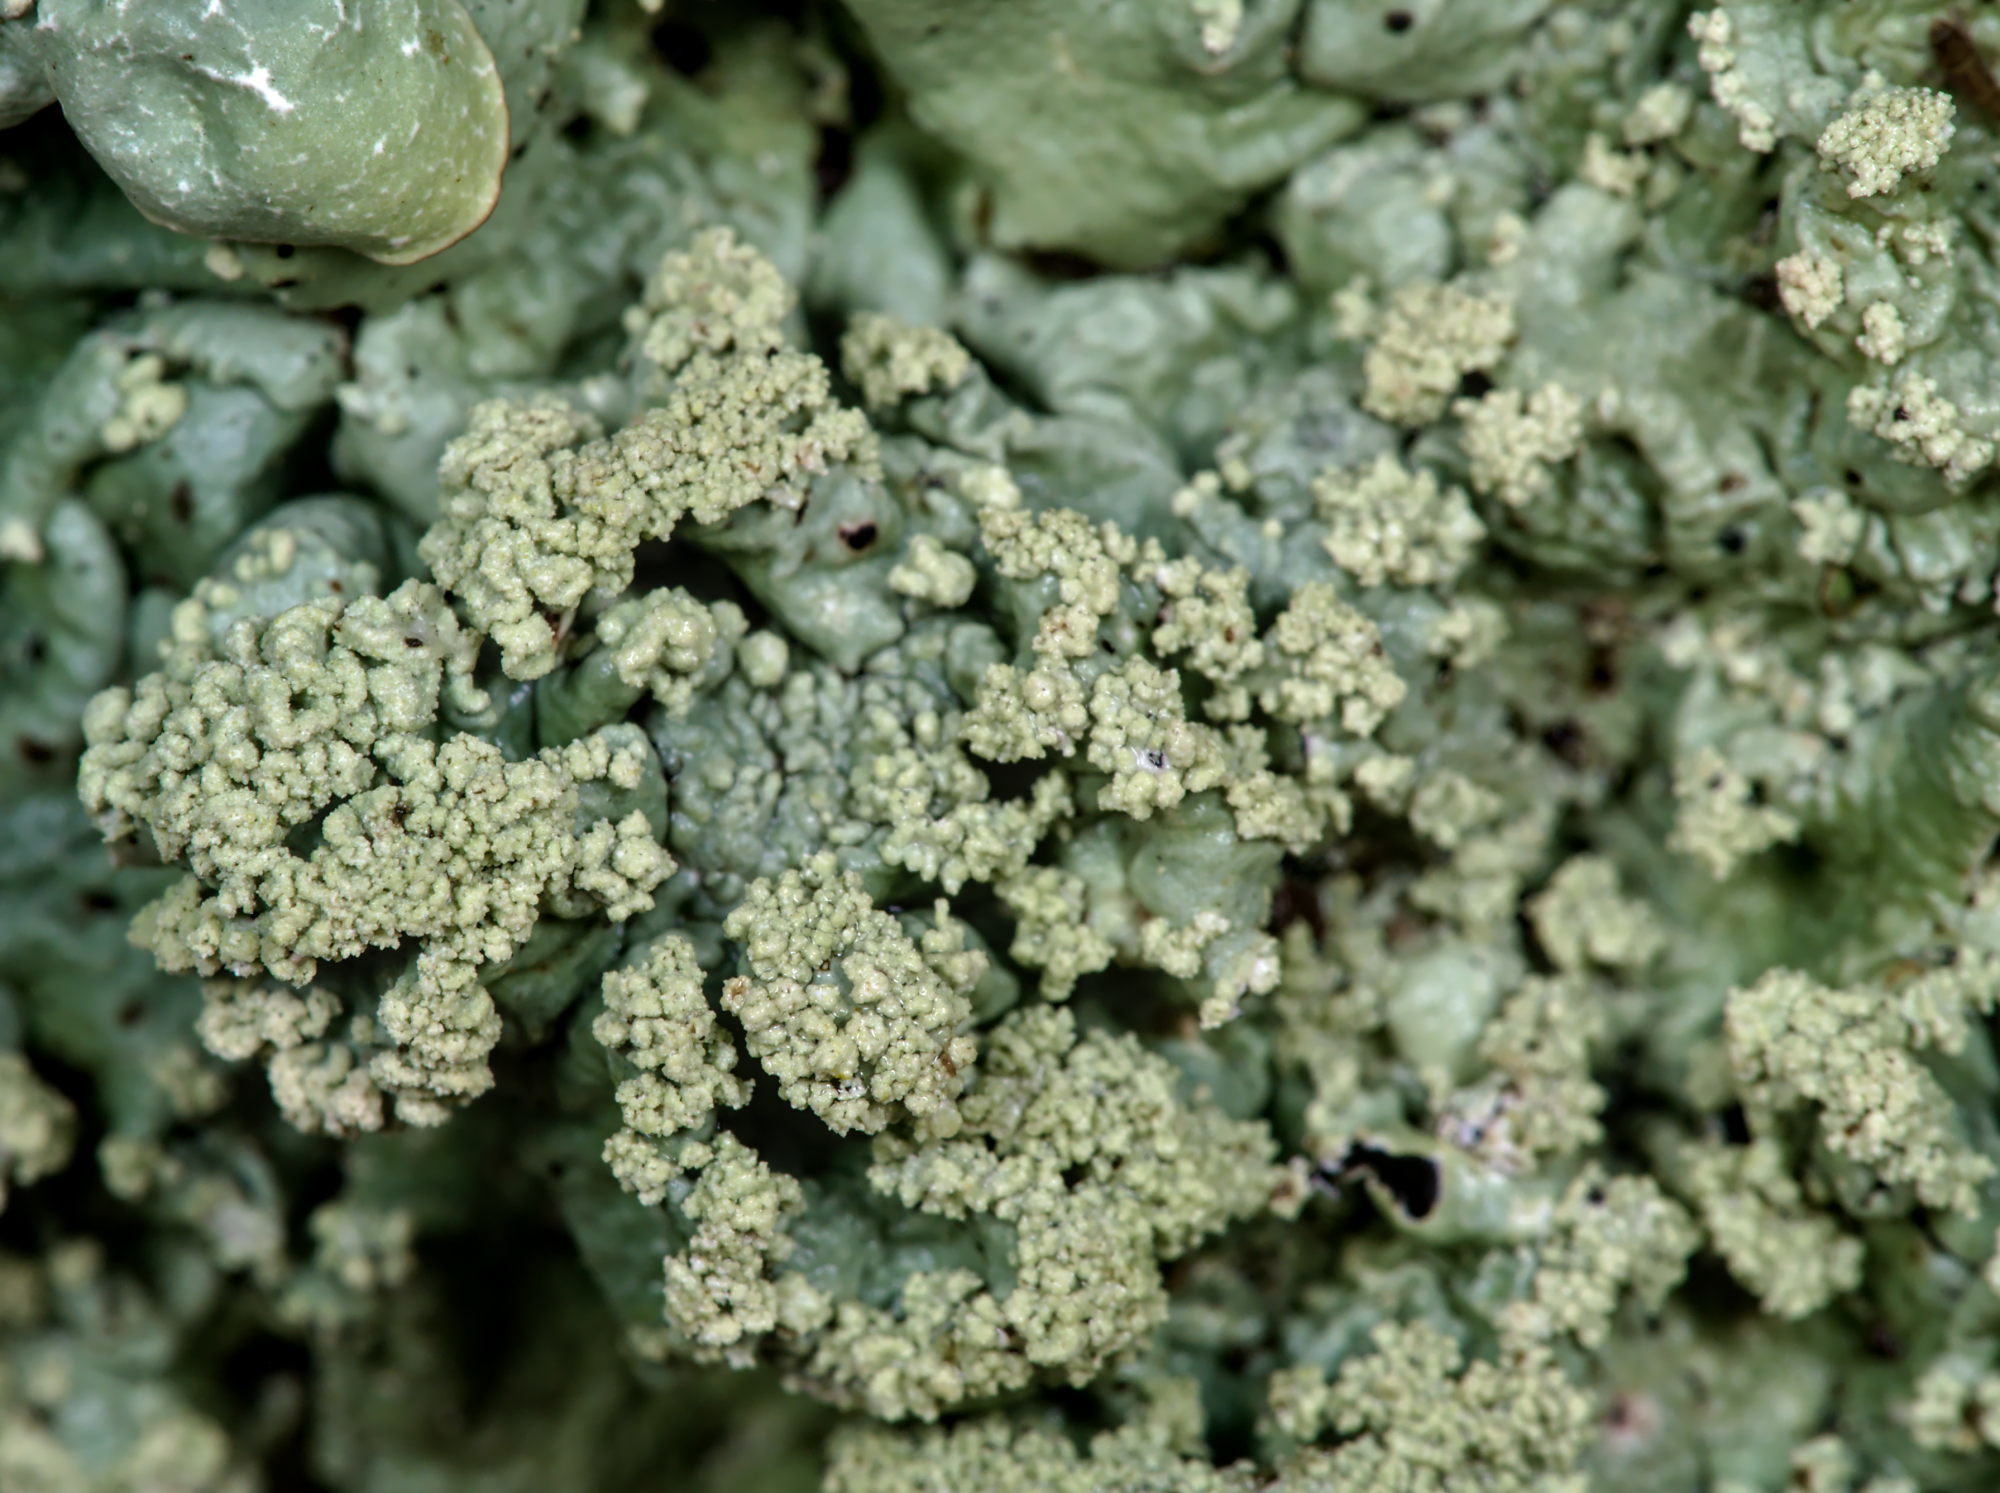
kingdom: Fungi
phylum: Ascomycota
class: Lecanoromycetes
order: Lecanorales
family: Parmeliaceae
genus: Flavoparmelia
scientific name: Flavoparmelia caperata
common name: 40-mile per hour lichen
